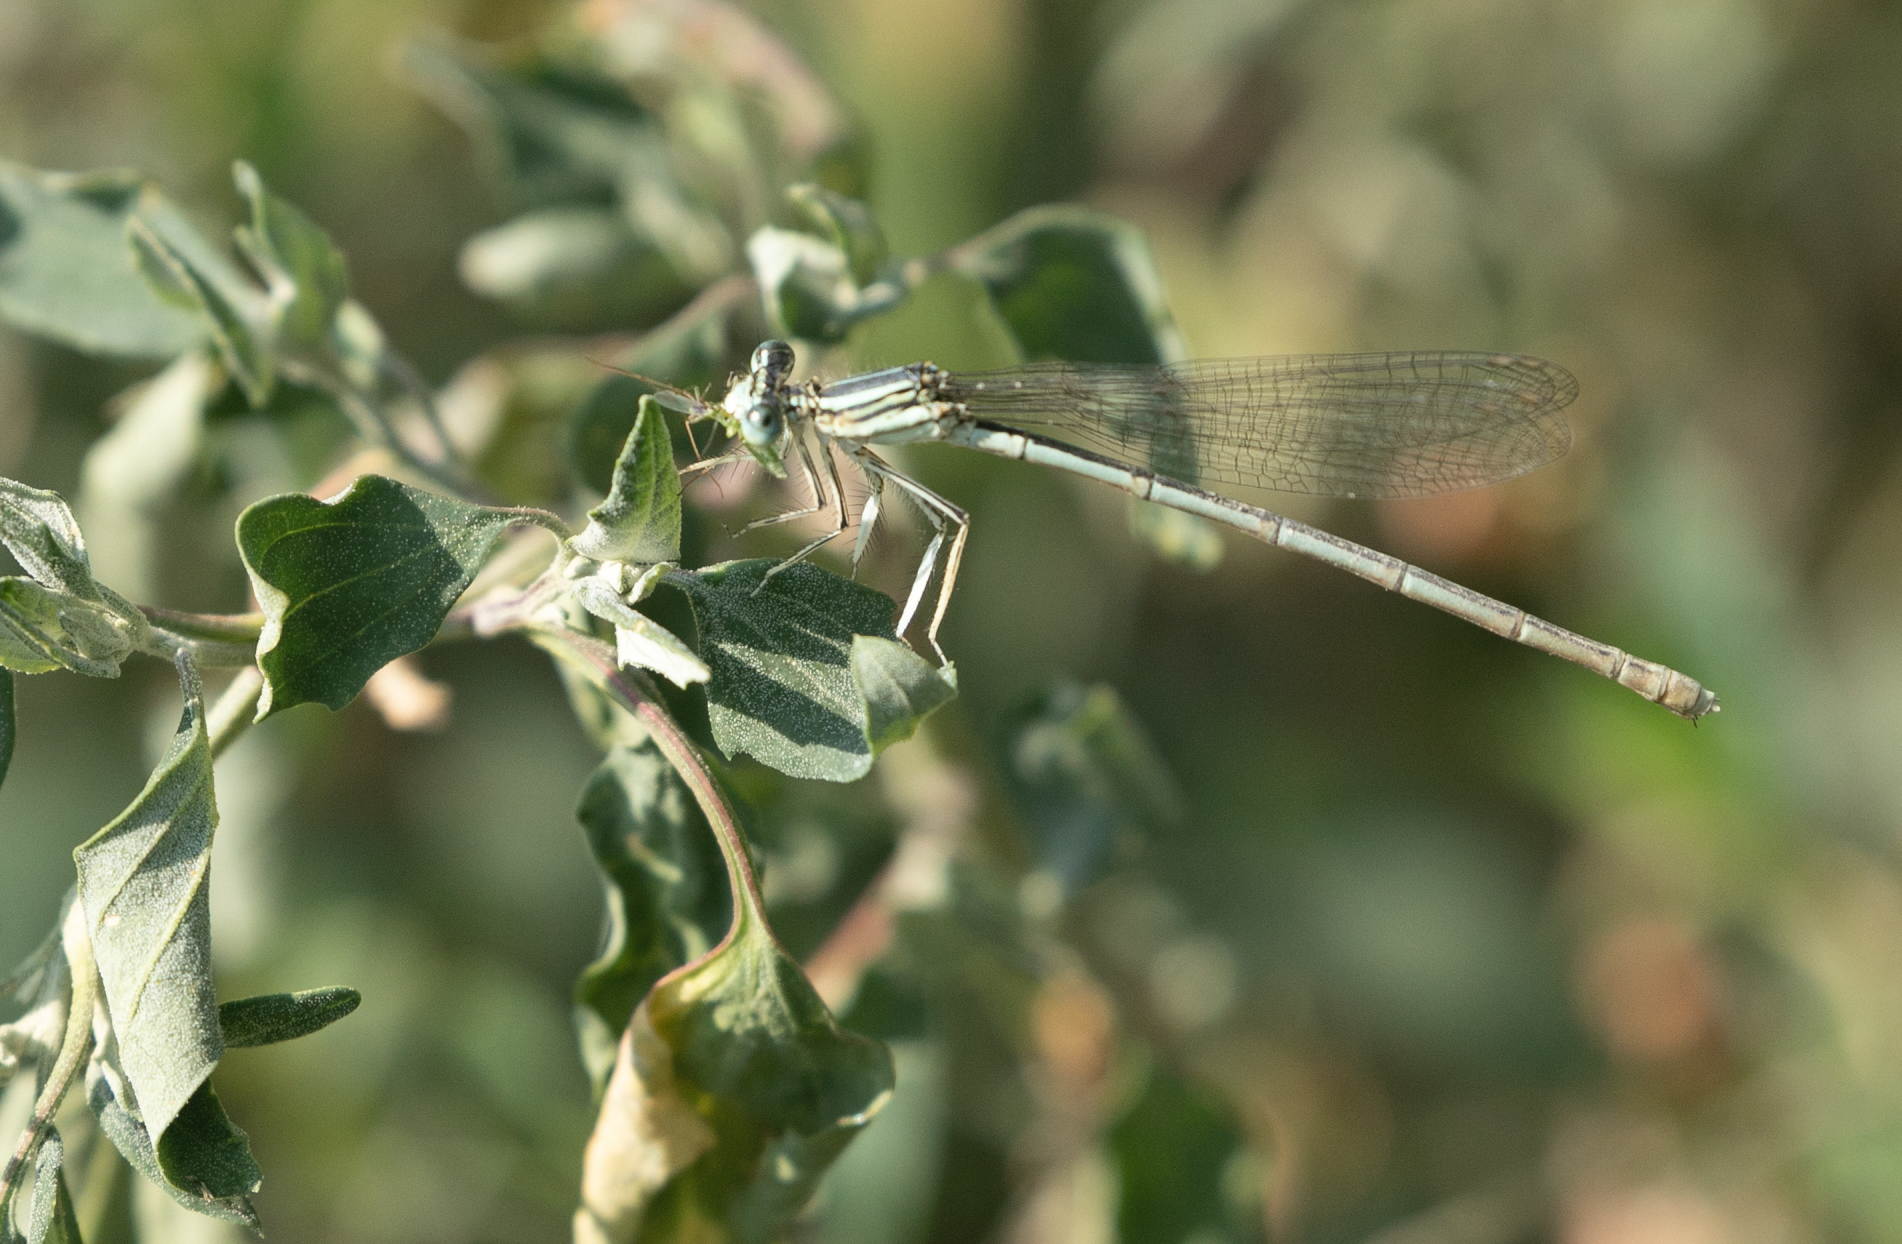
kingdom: Animalia
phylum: Arthropoda
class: Insecta
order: Odonata
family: Platycnemididae
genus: Platycnemis
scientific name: Platycnemis pennipes
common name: White-legged damselfly
